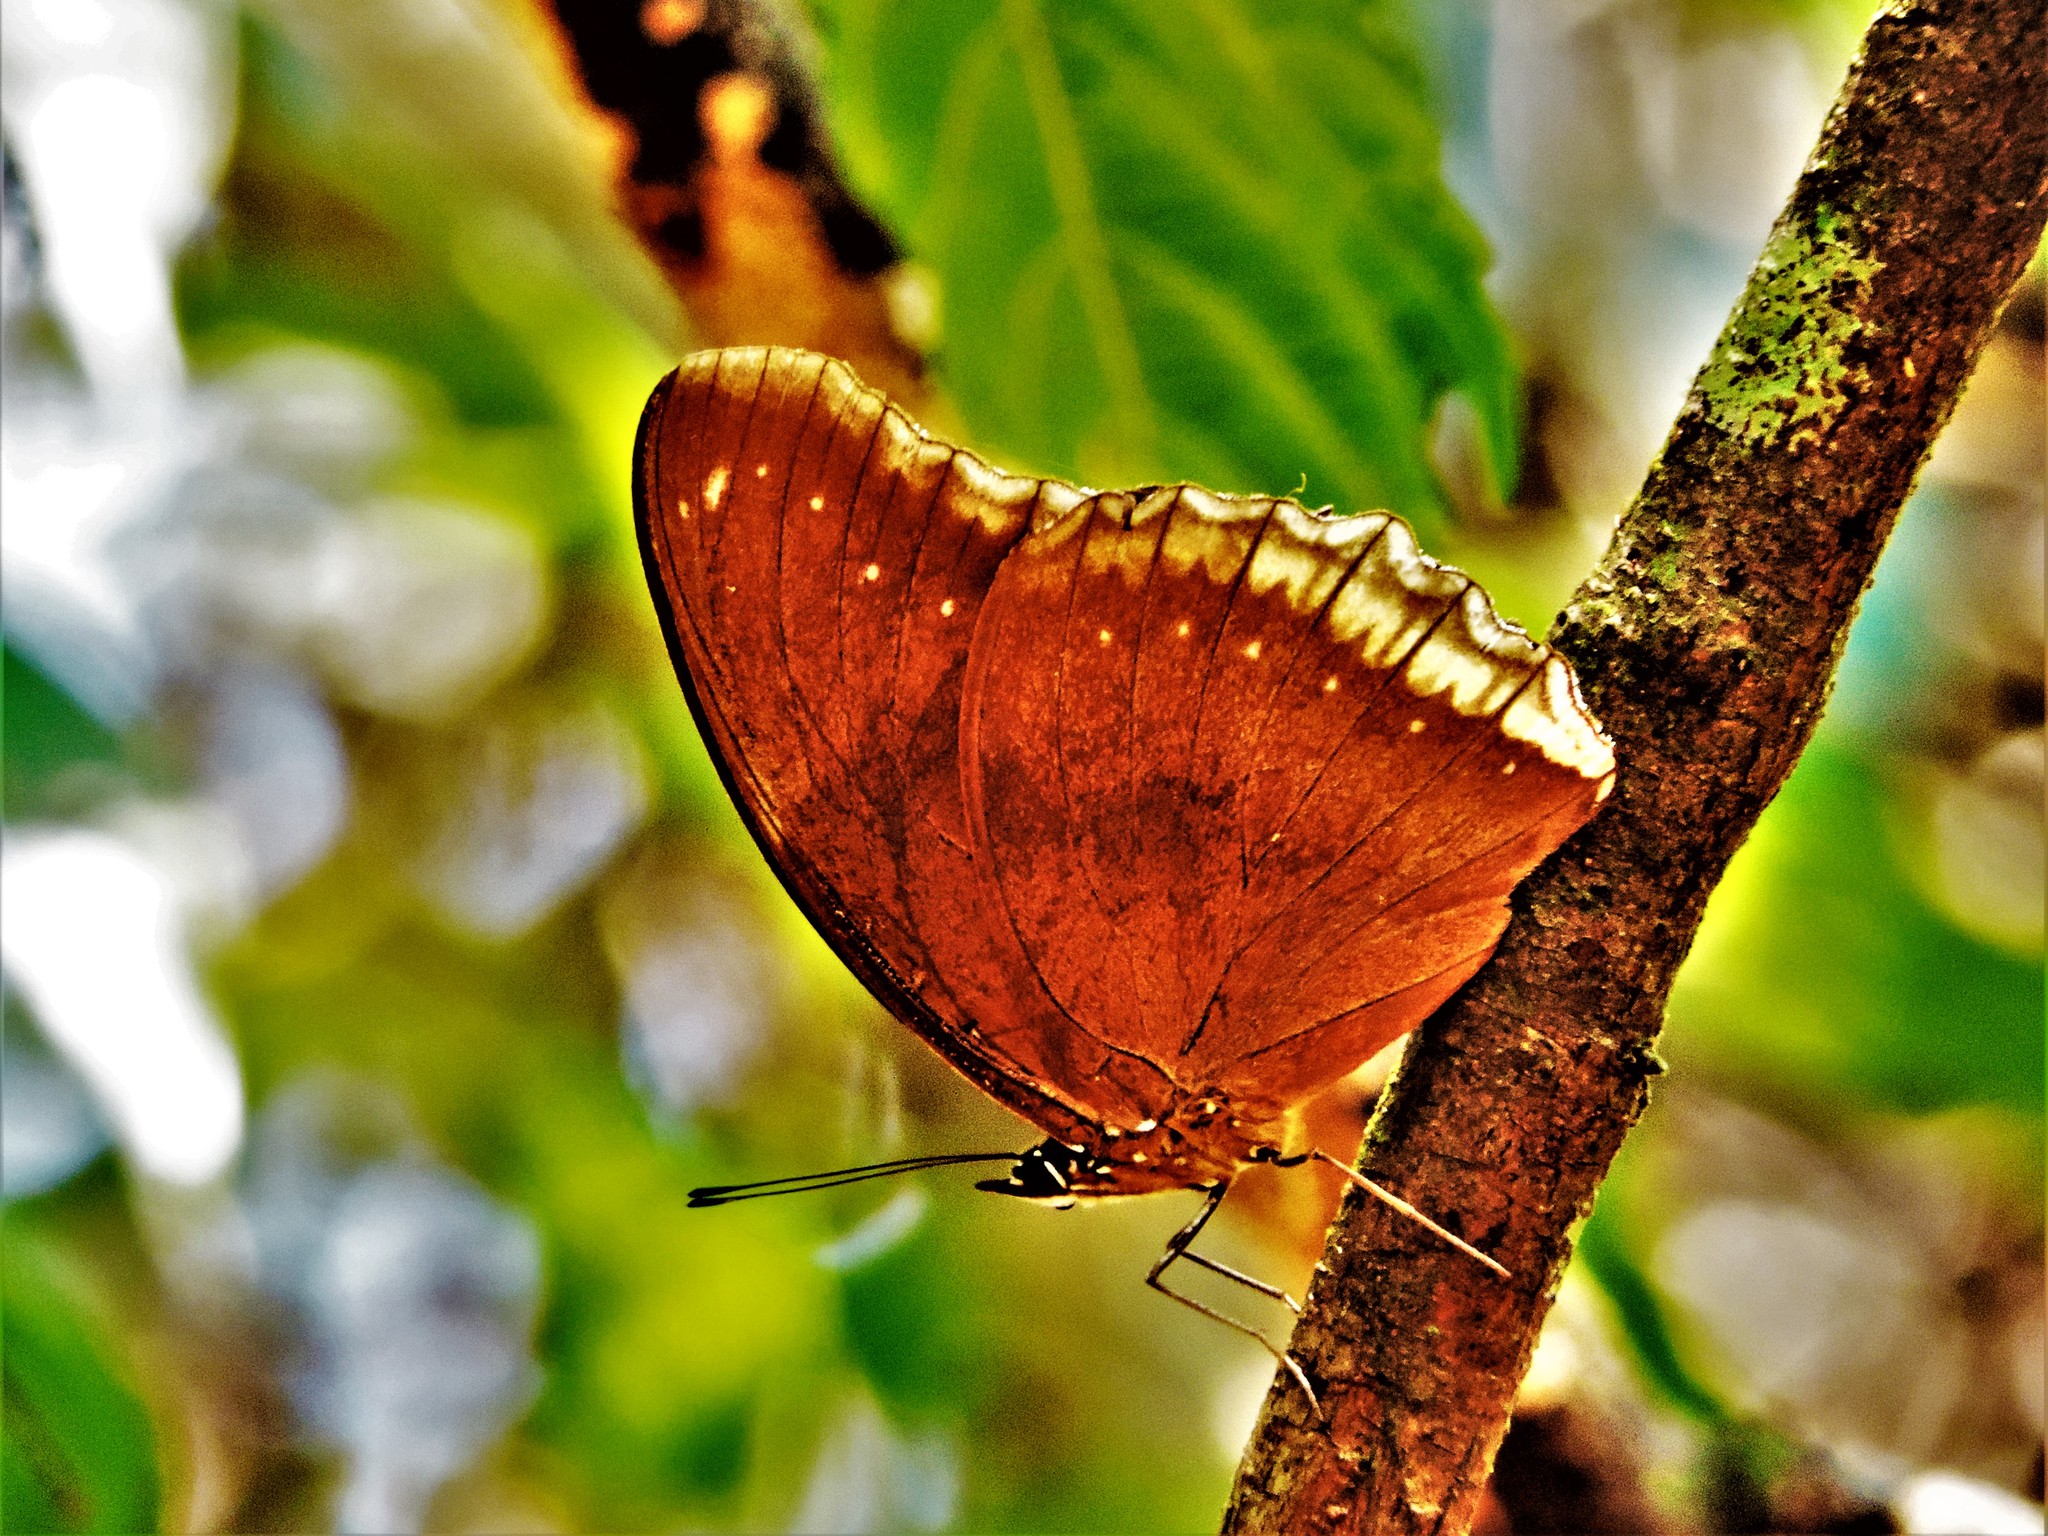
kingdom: Animalia
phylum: Arthropoda
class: Insecta
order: Lepidoptera
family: Nymphalidae
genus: Hypolimnas
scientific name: Hypolimnas bolina
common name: Great eggfly
